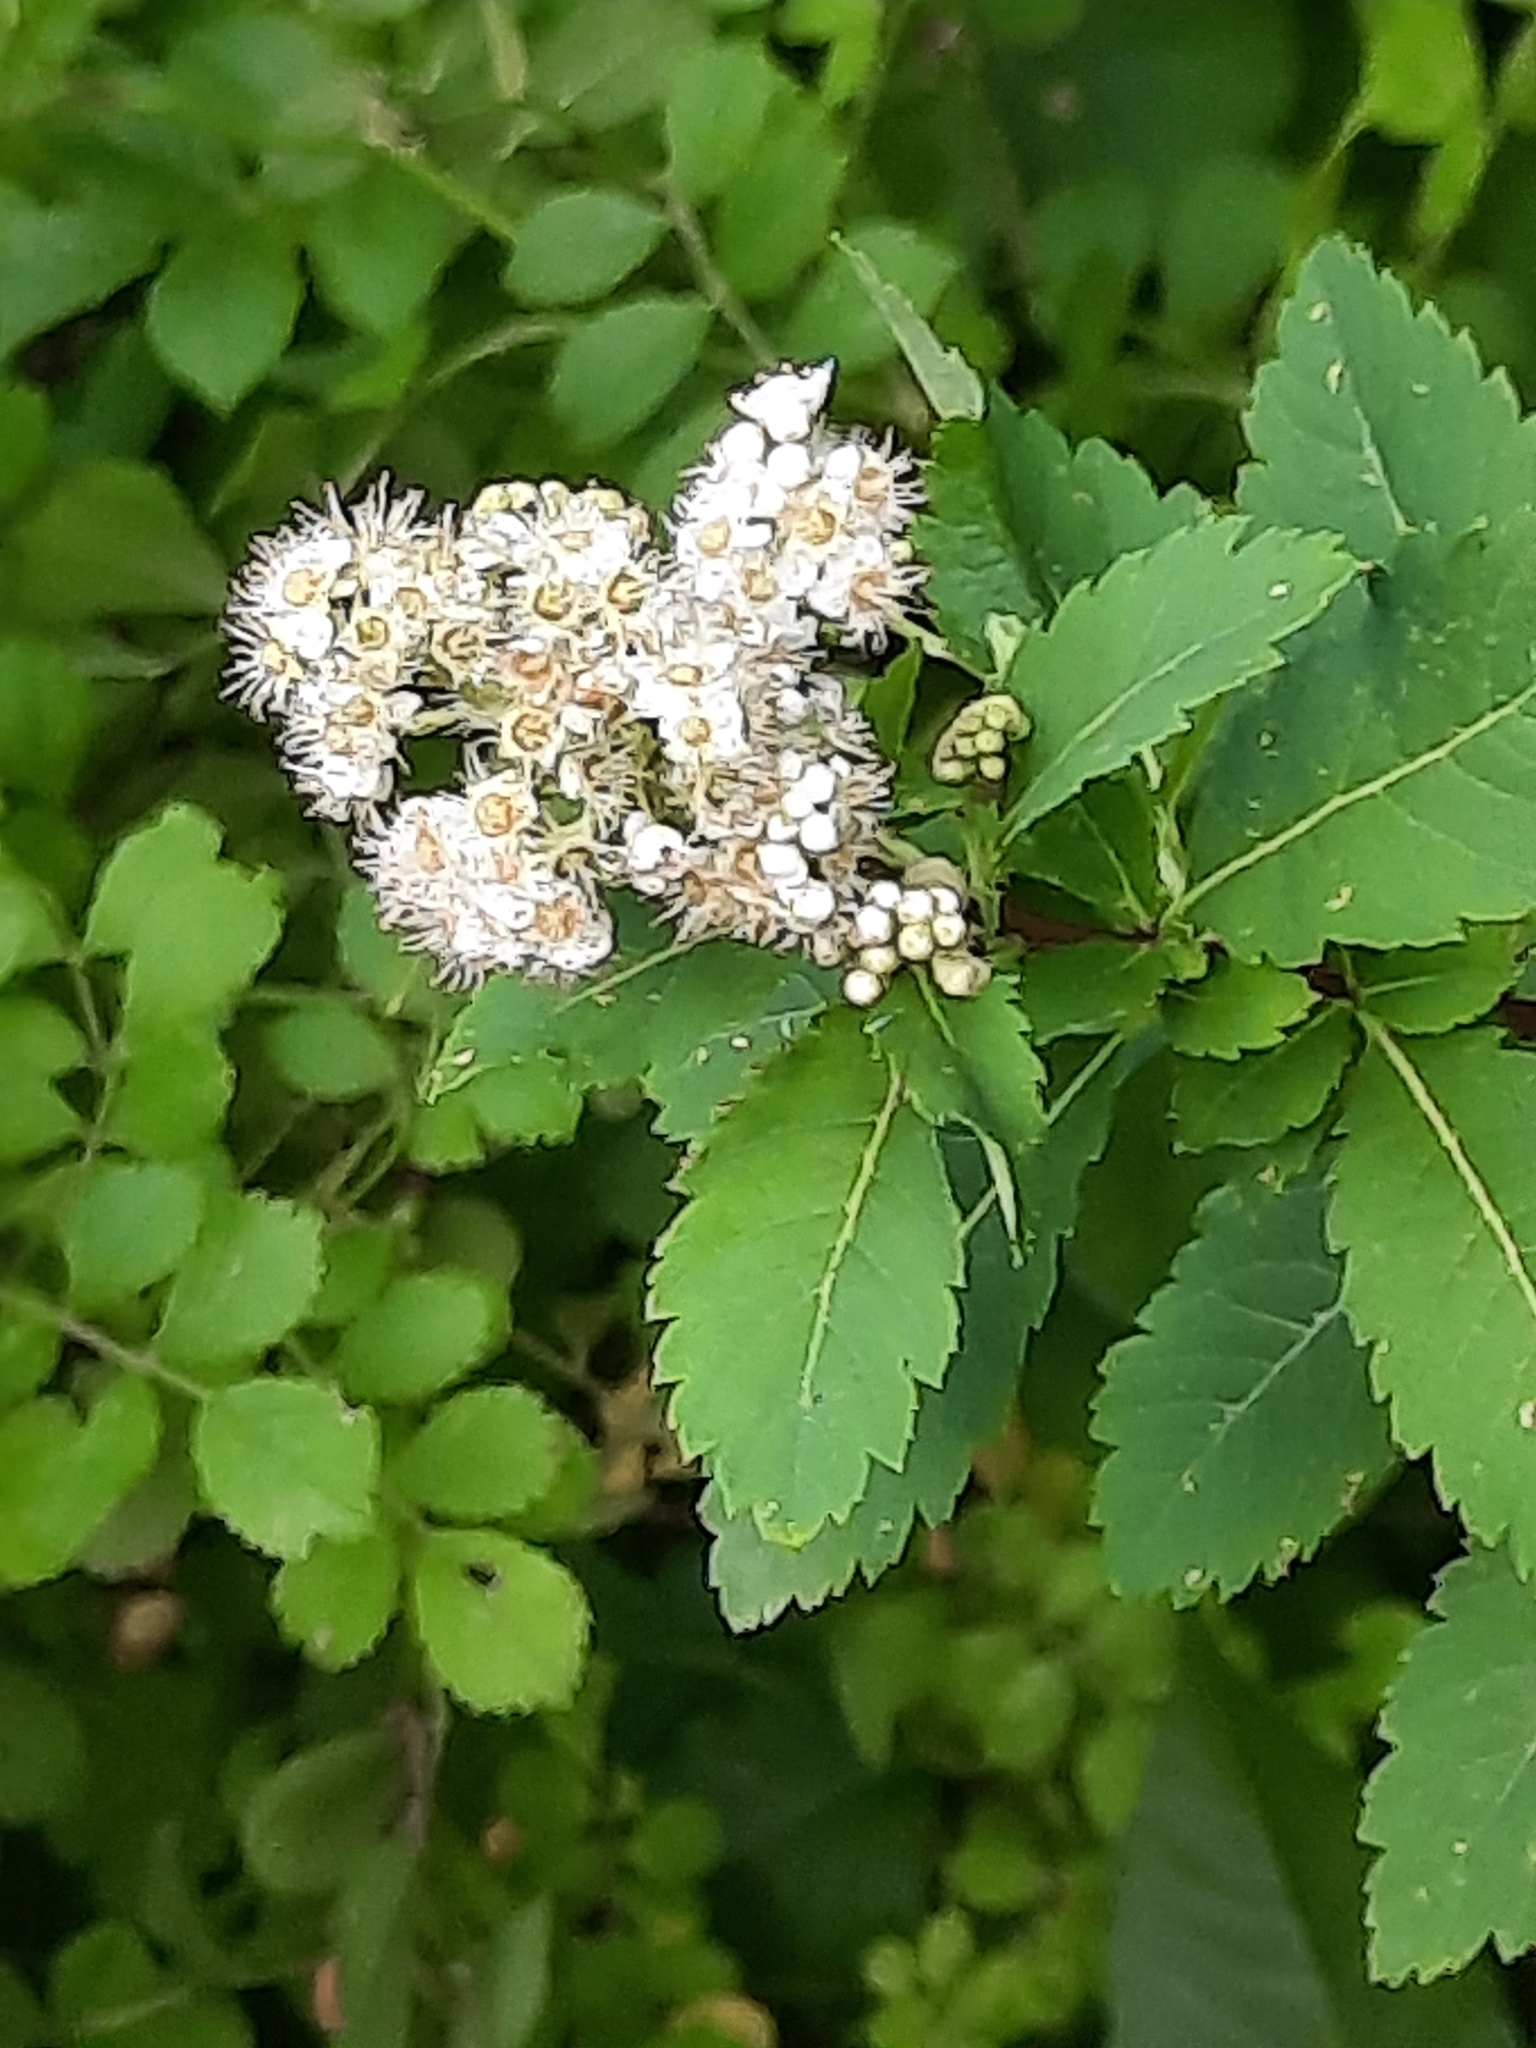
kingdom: Plantae
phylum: Tracheophyta
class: Magnoliopsida
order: Rosales
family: Rosaceae
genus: Spiraea
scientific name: Spiraea alba
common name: Pale bridewort
